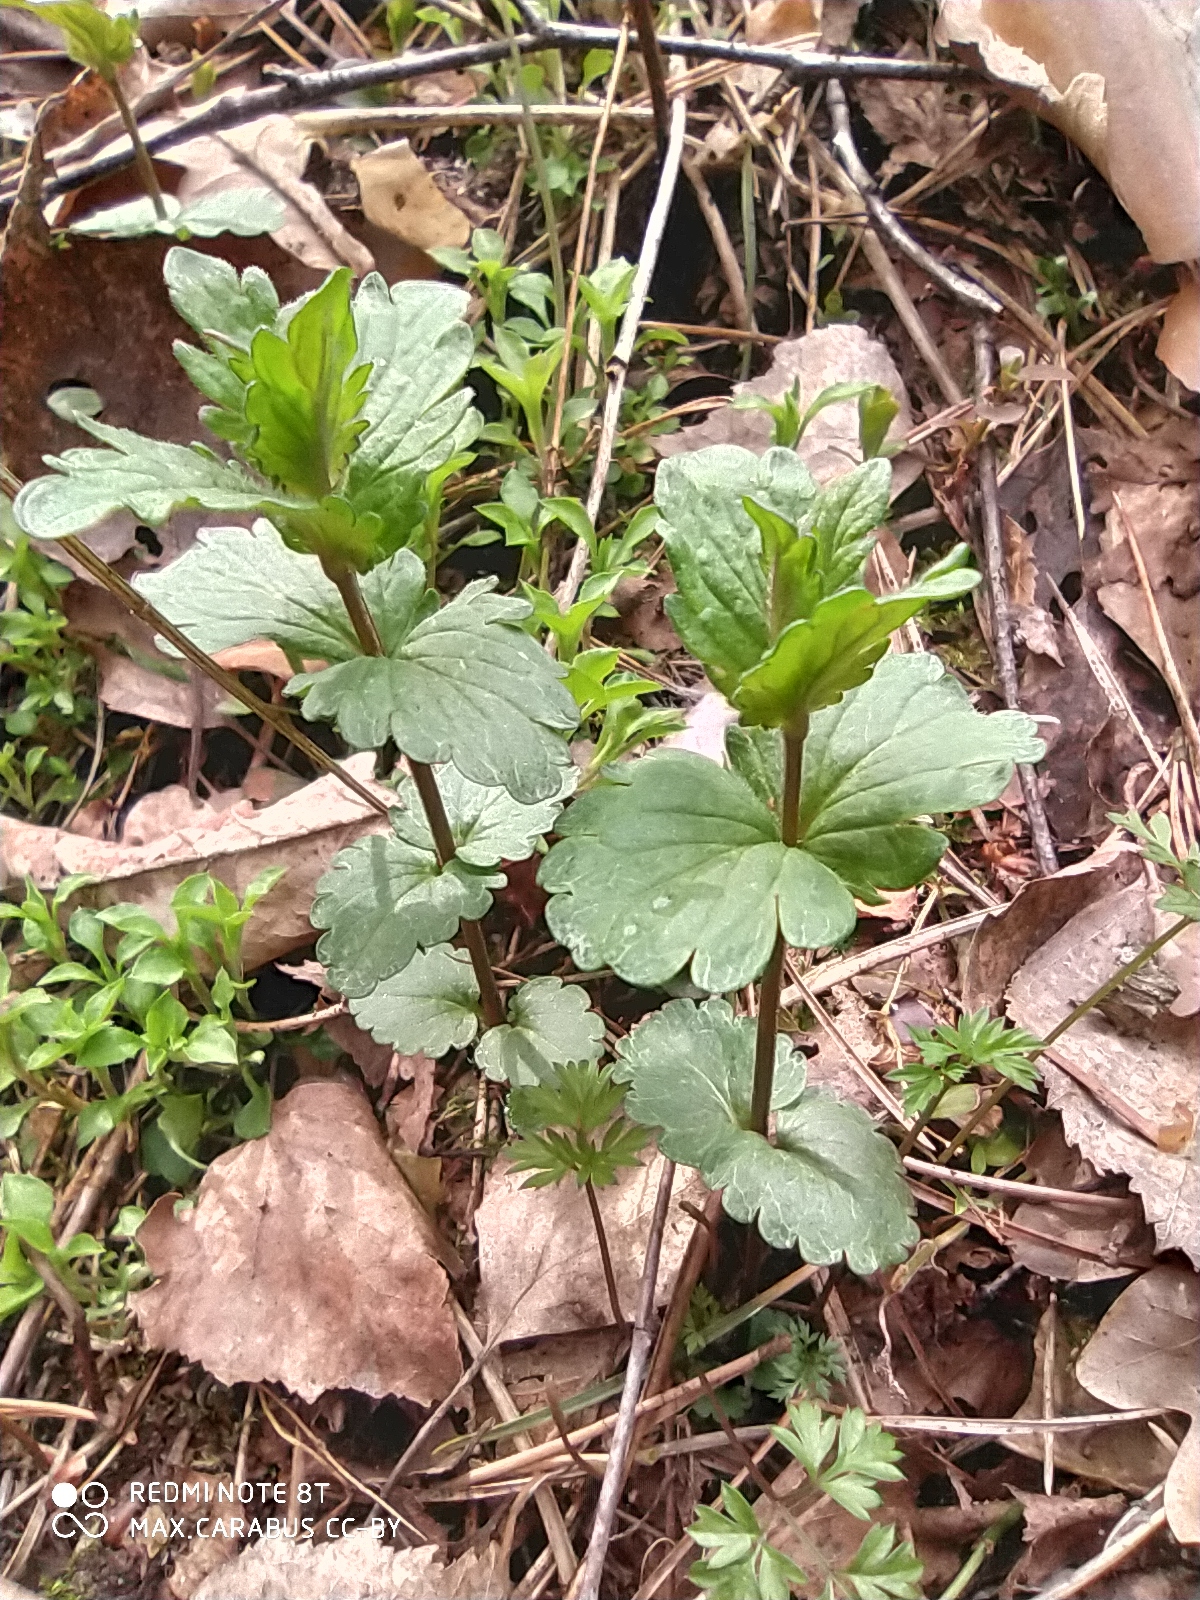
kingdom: Plantae
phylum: Tracheophyta
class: Magnoliopsida
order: Lamiales
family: Plantaginaceae
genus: Veronica
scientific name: Veronica chamaedrys
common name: Germander speedwell
